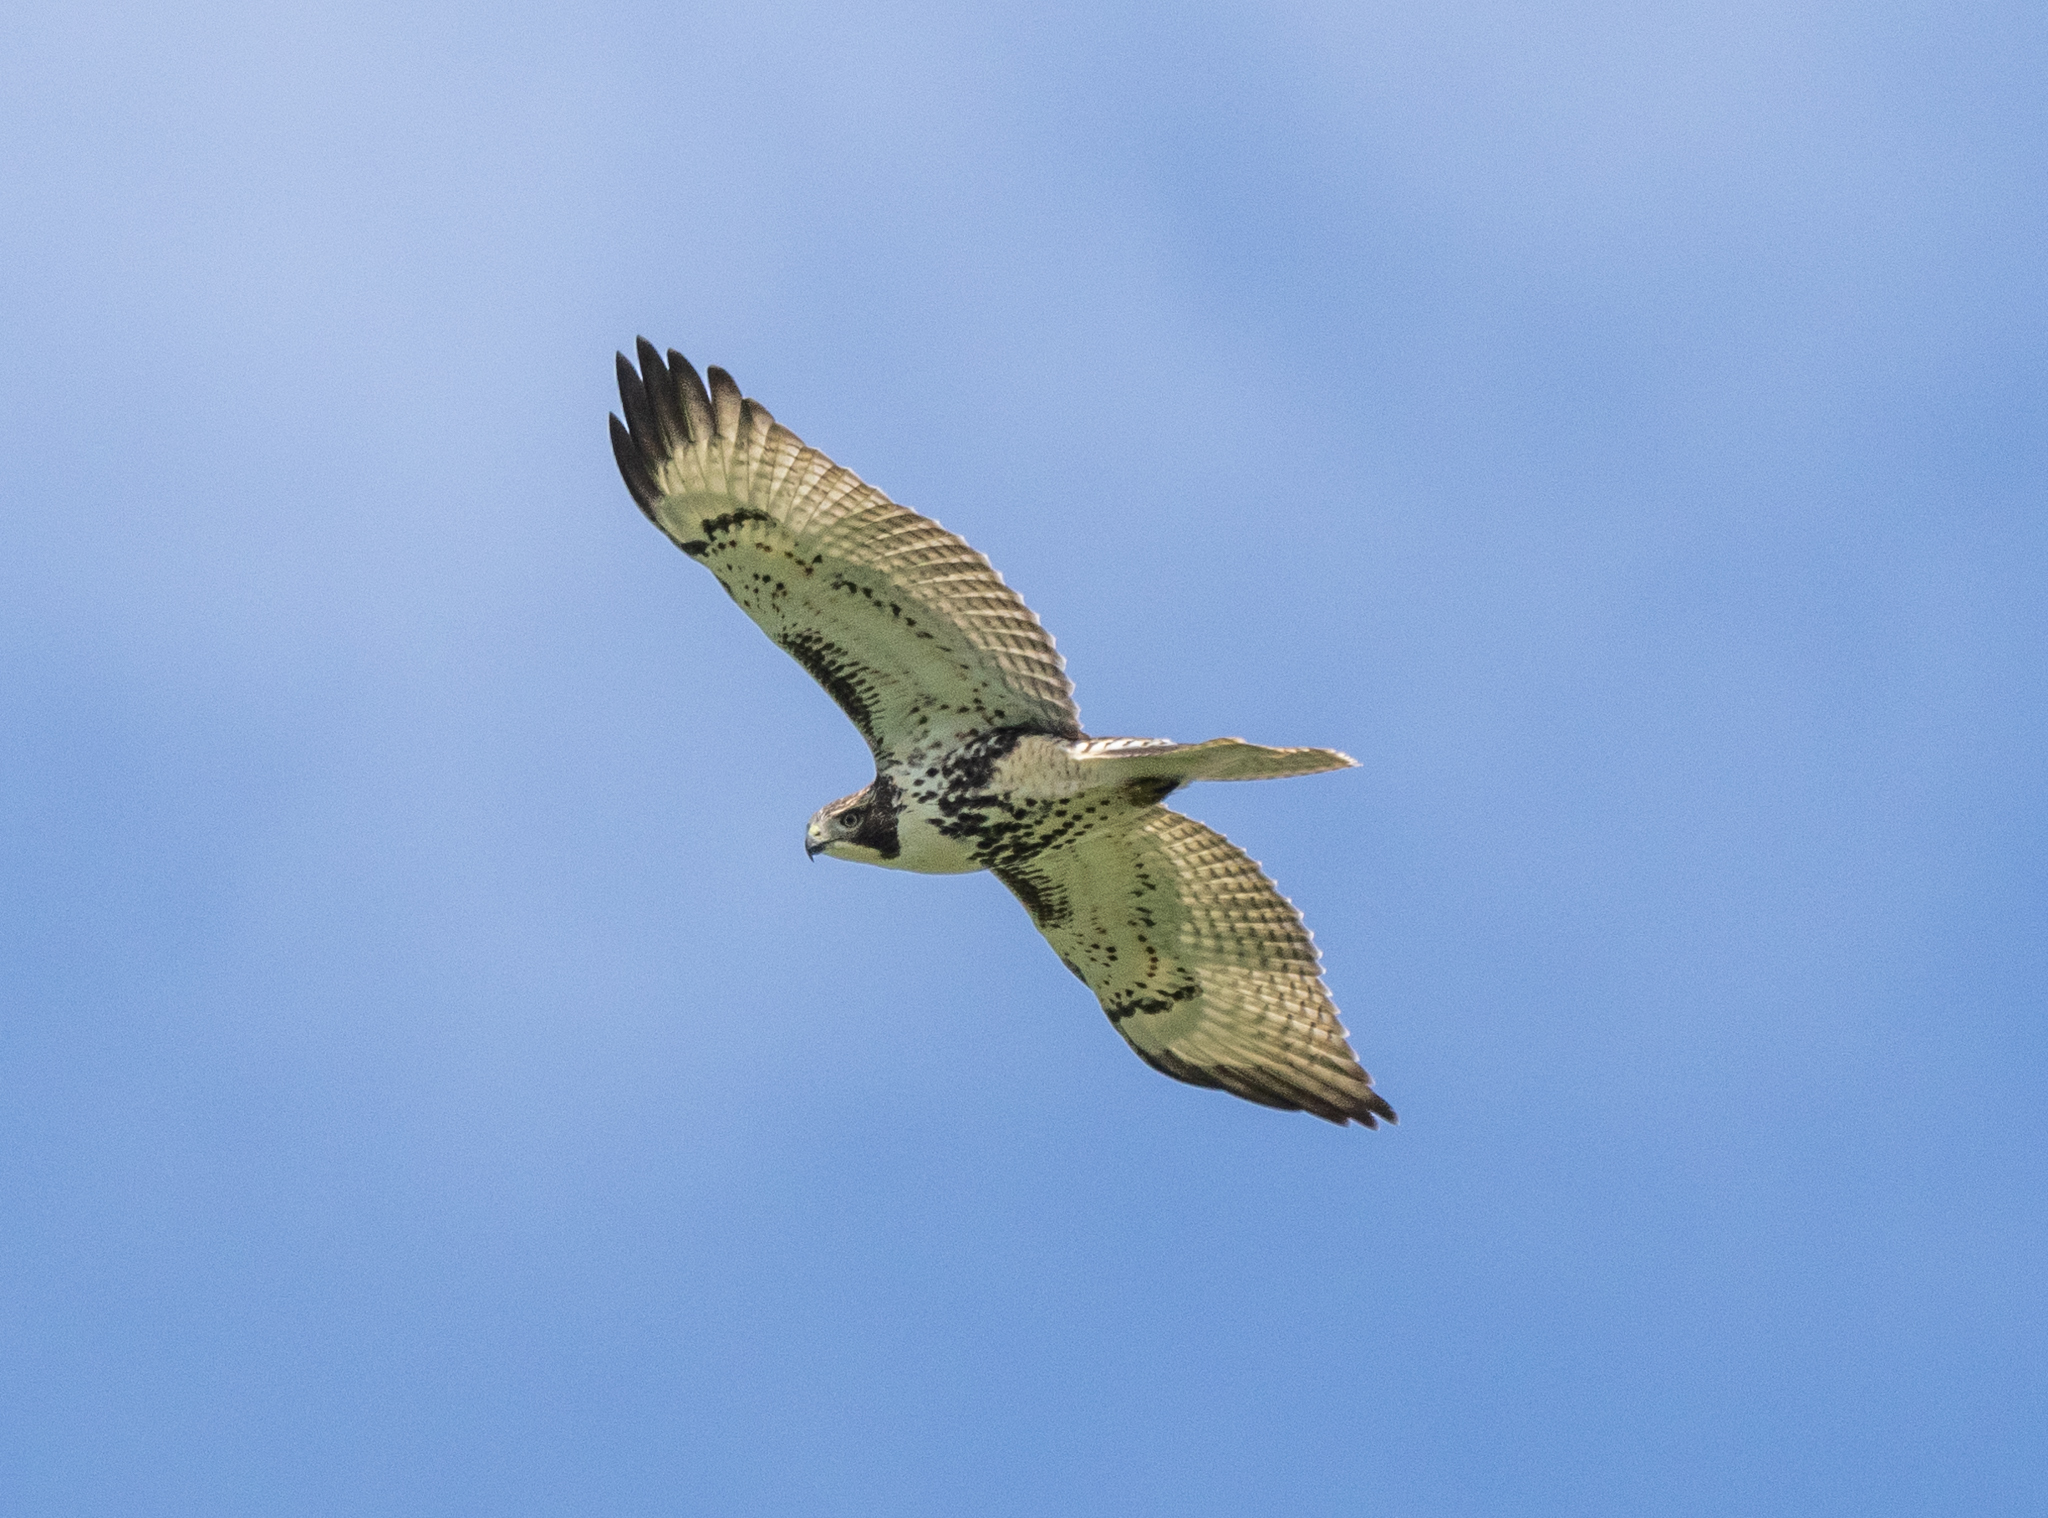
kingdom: Animalia
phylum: Chordata
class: Aves
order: Accipitriformes
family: Accipitridae
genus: Buteo
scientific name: Buteo jamaicensis
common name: Red-tailed hawk
